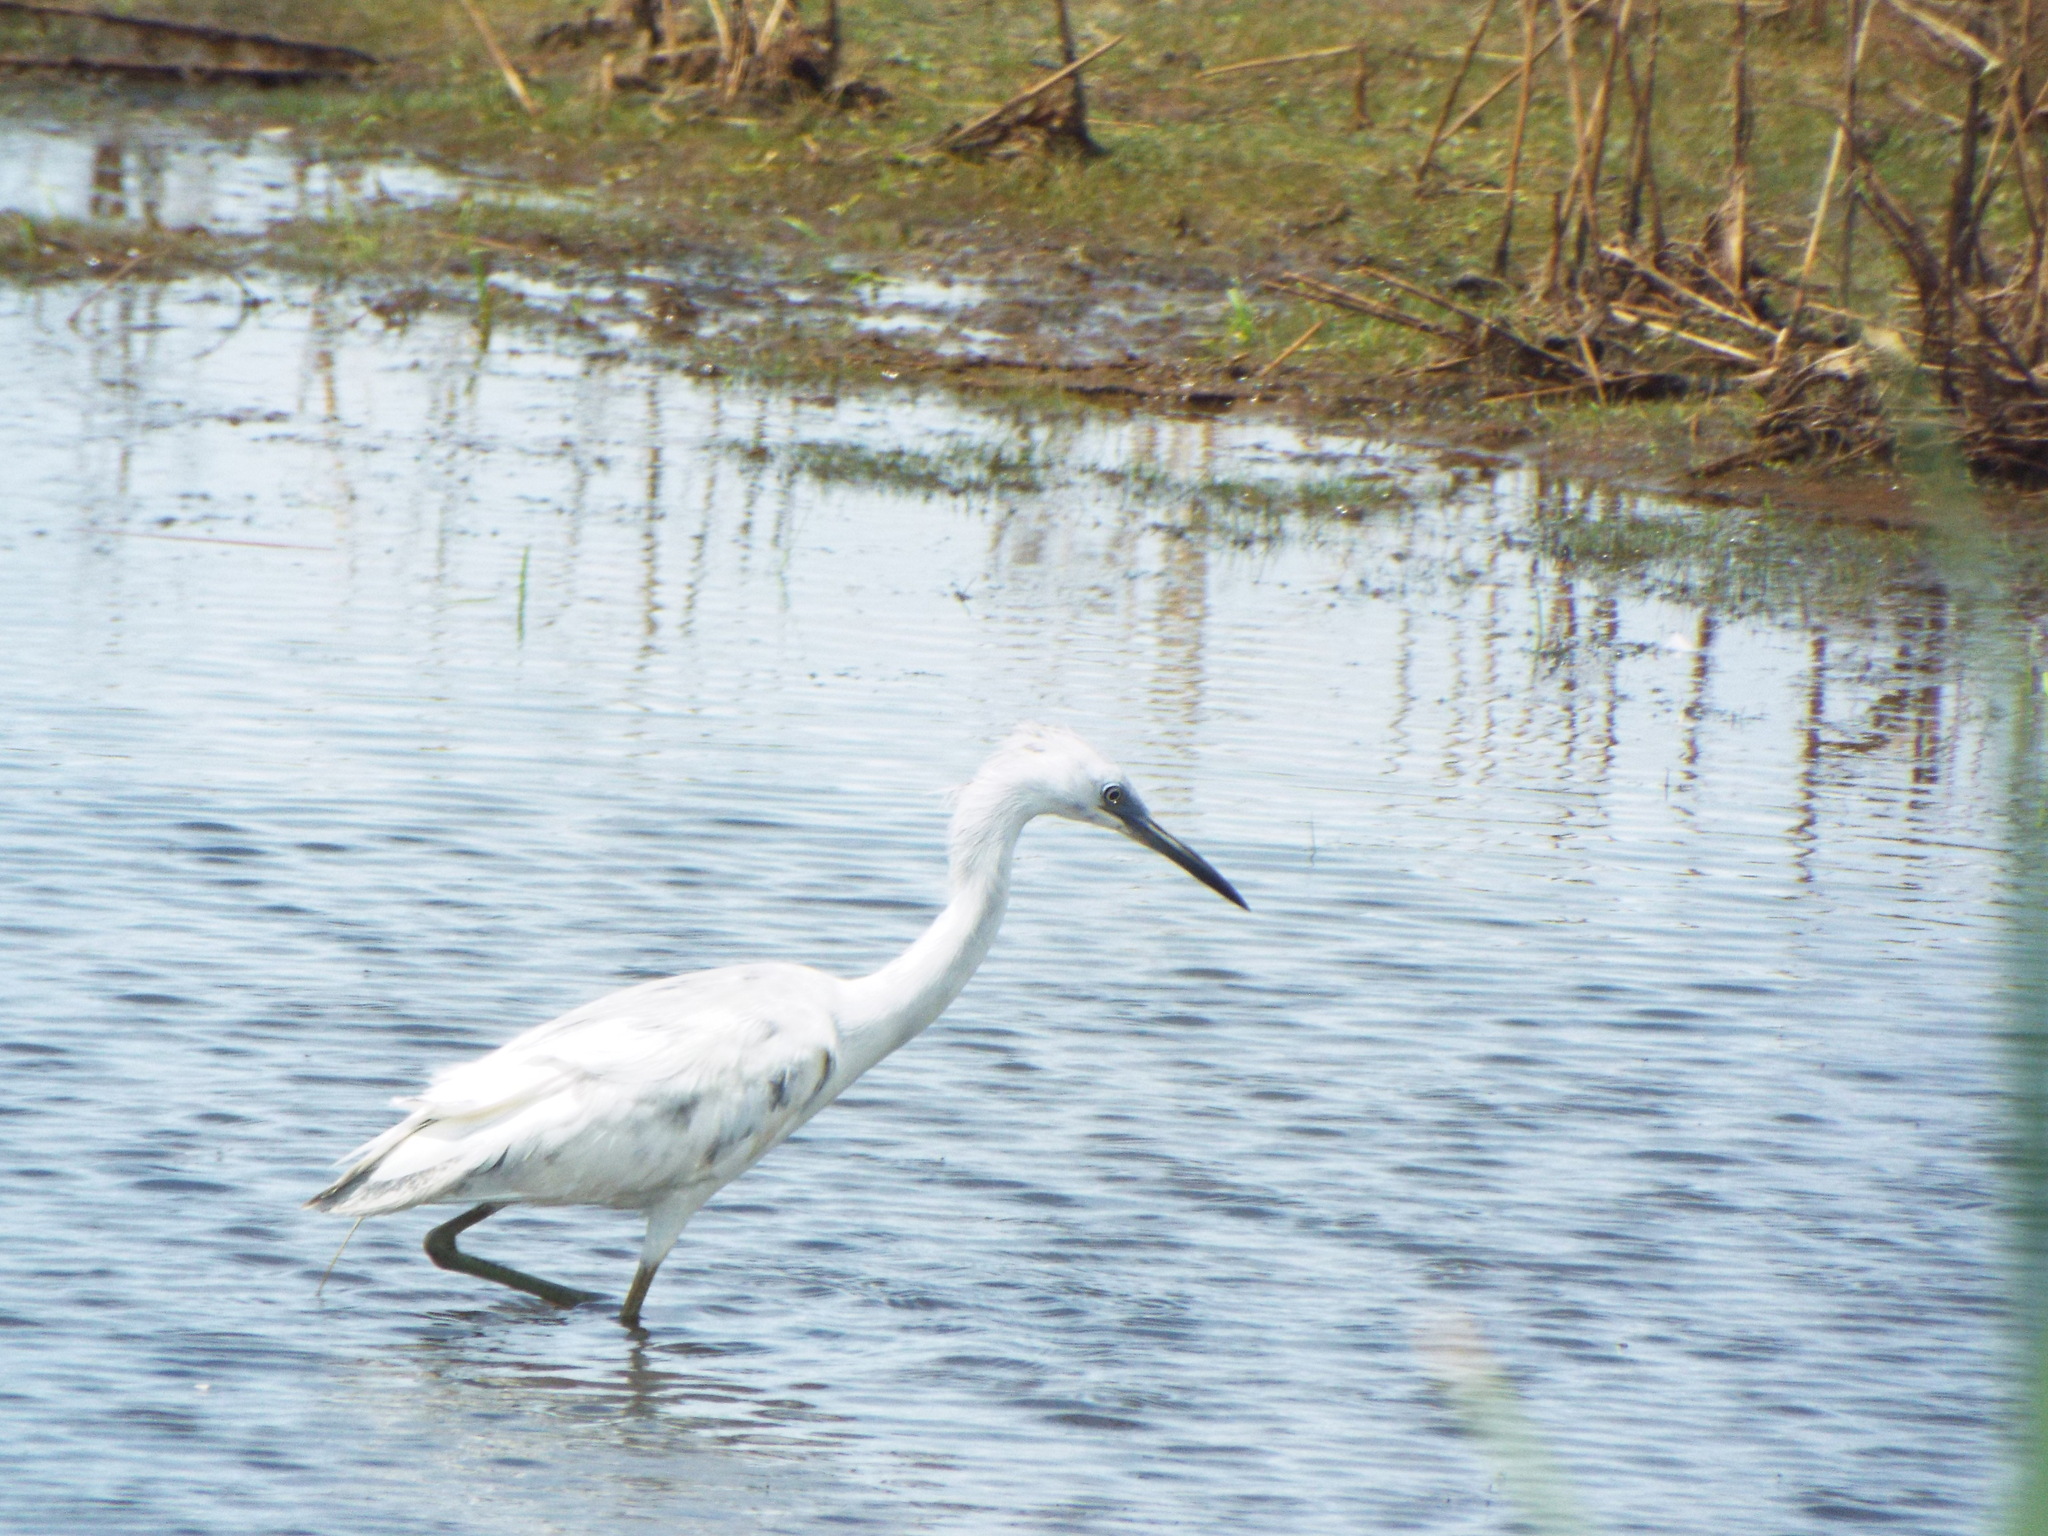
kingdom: Animalia
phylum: Chordata
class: Aves
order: Pelecaniformes
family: Ardeidae
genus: Egretta
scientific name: Egretta caerulea
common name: Little blue heron
